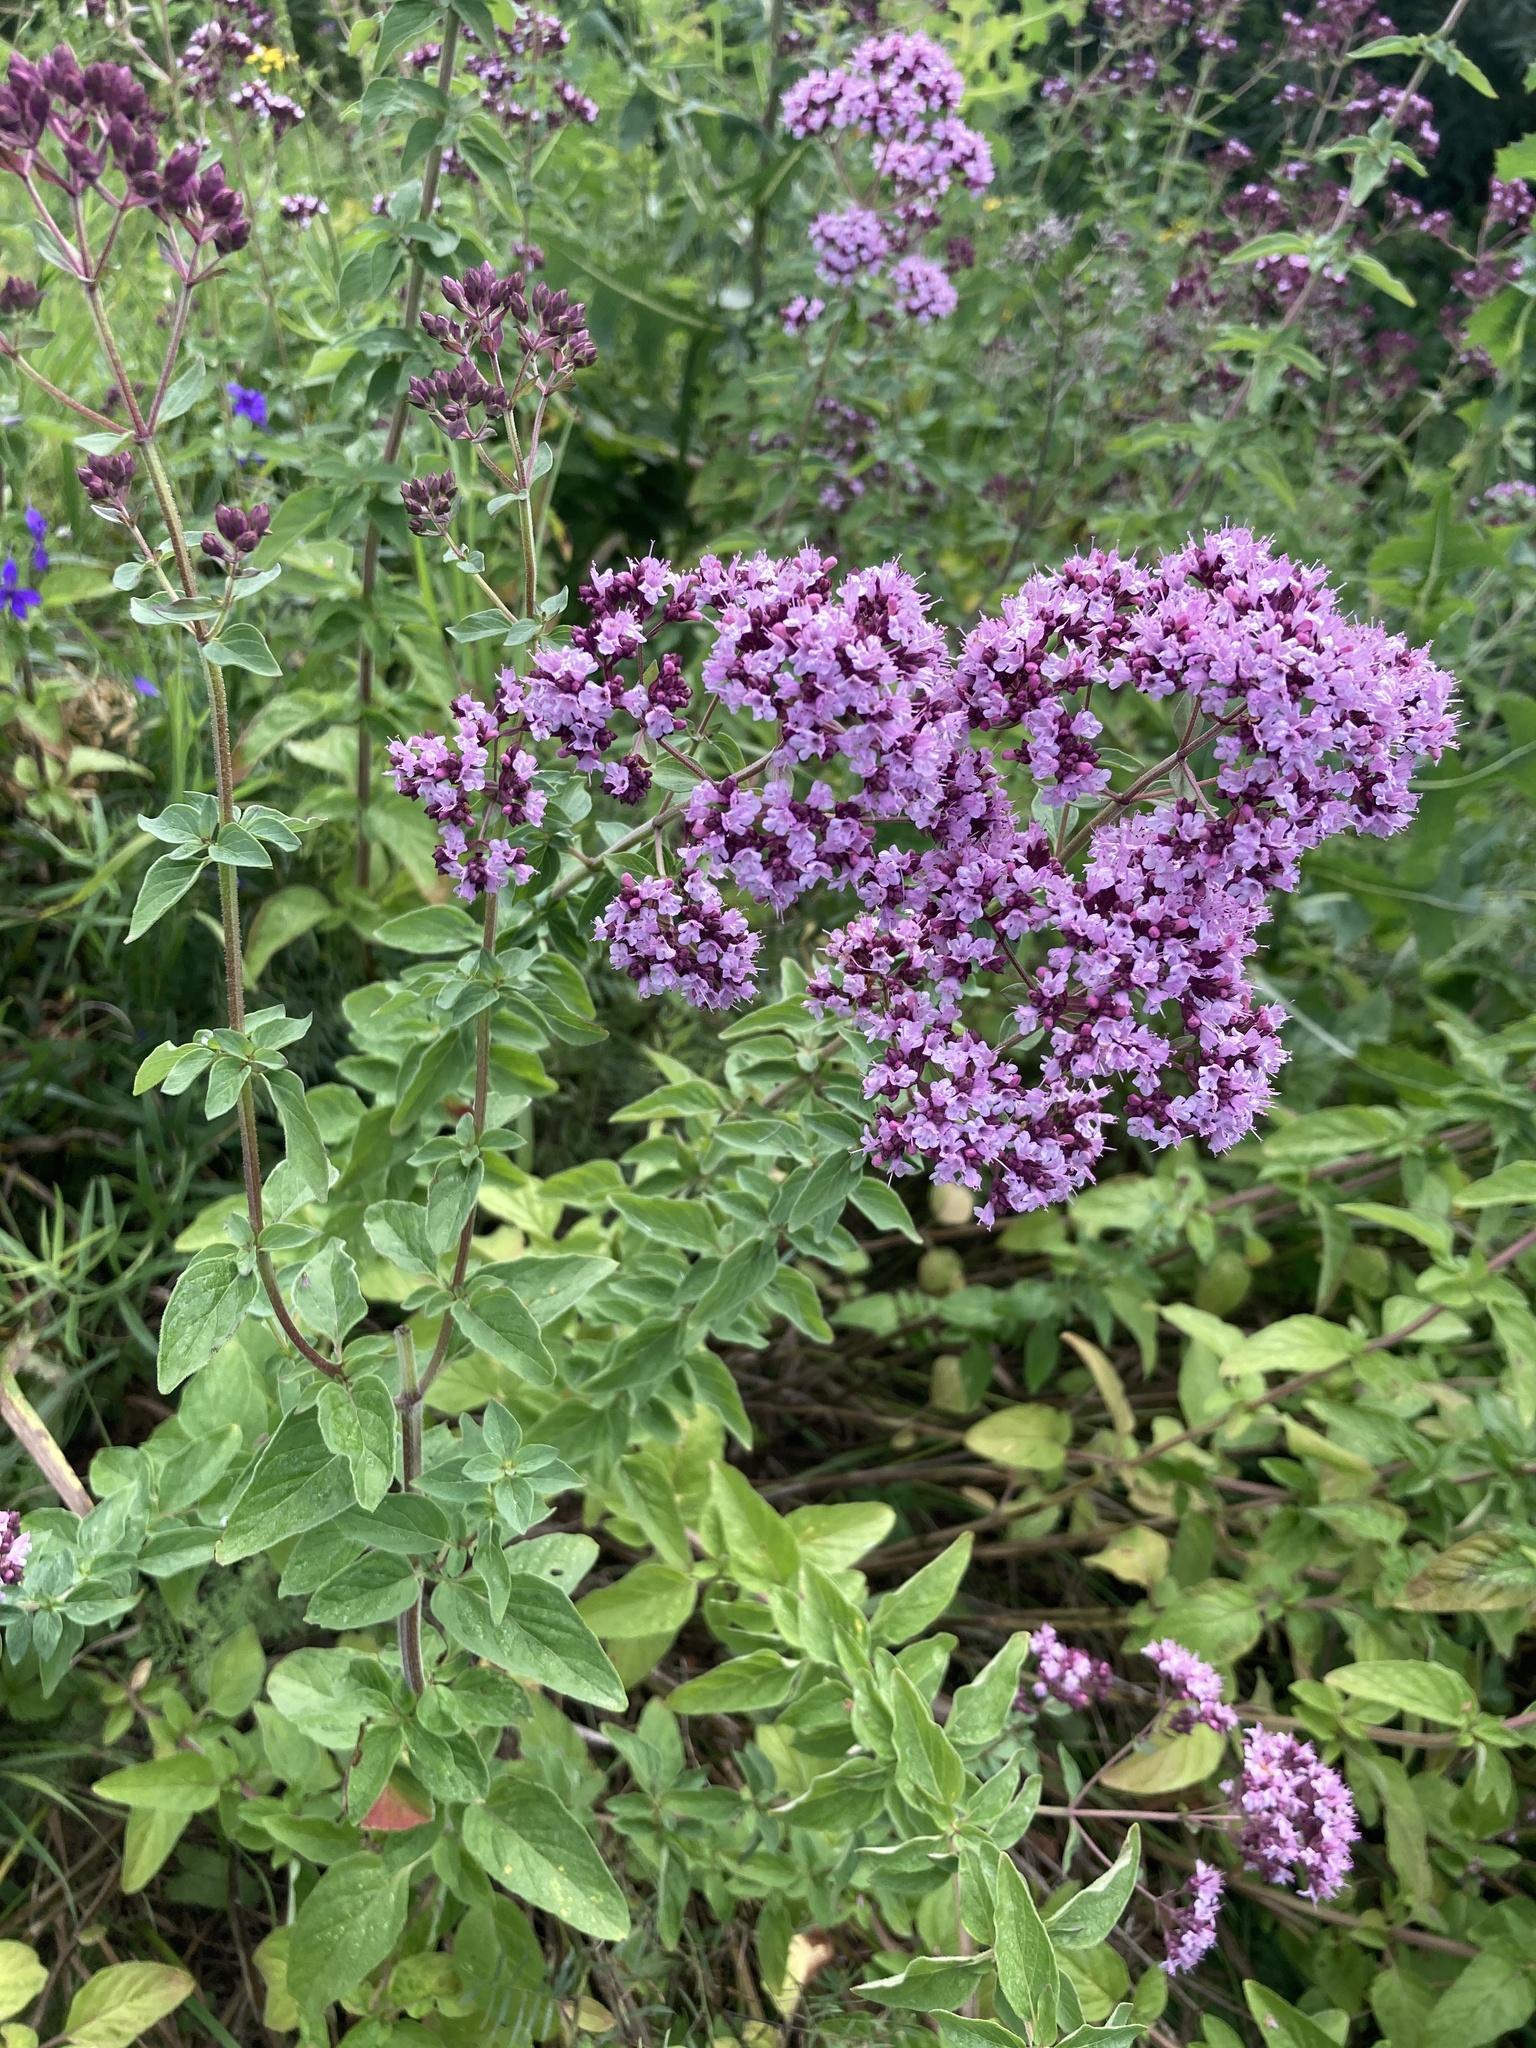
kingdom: Plantae
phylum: Tracheophyta
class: Magnoliopsida
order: Lamiales
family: Lamiaceae
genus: Origanum
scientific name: Origanum vulgare
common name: Wild marjoram
